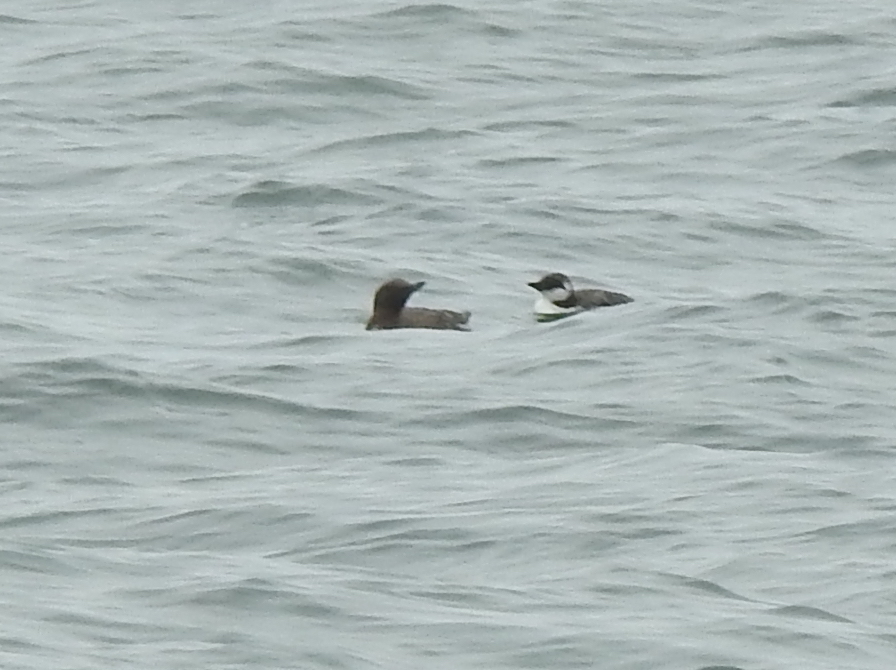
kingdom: Animalia
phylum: Chordata
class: Aves
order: Charadriiformes
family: Alcidae
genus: Uria
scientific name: Uria aalge
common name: Common murre
